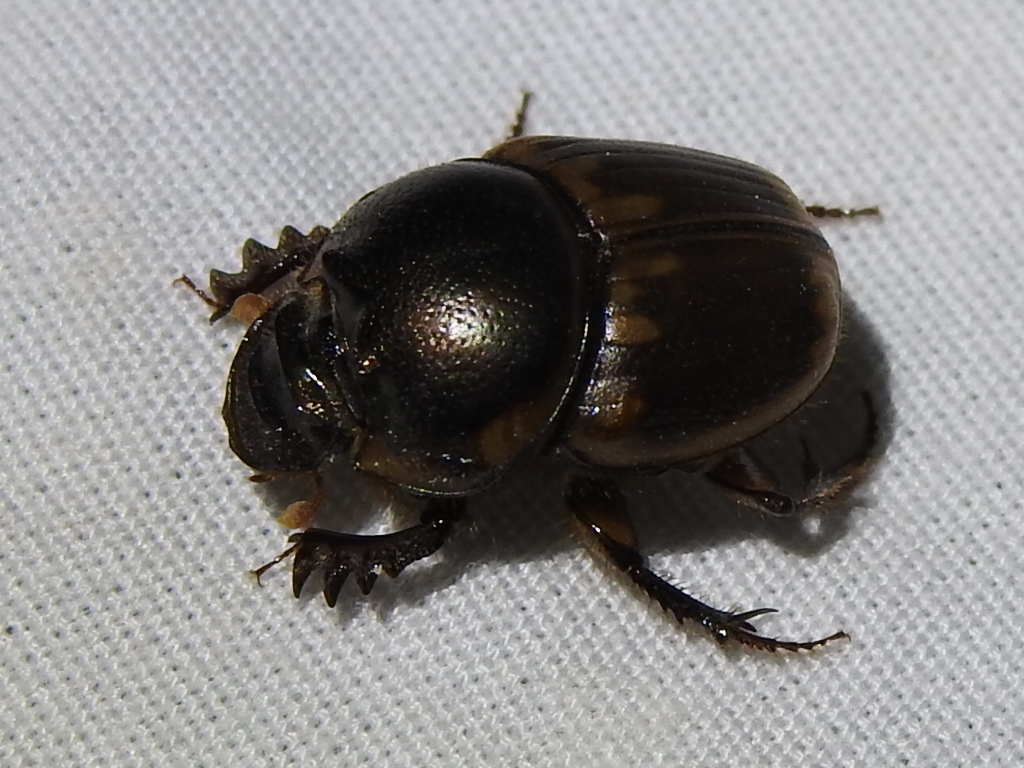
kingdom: Animalia
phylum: Arthropoda
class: Insecta
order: Coleoptera
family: Scarabaeidae
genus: Digitonthophagus
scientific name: Digitonthophagus gazella
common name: Brown dung beetle
